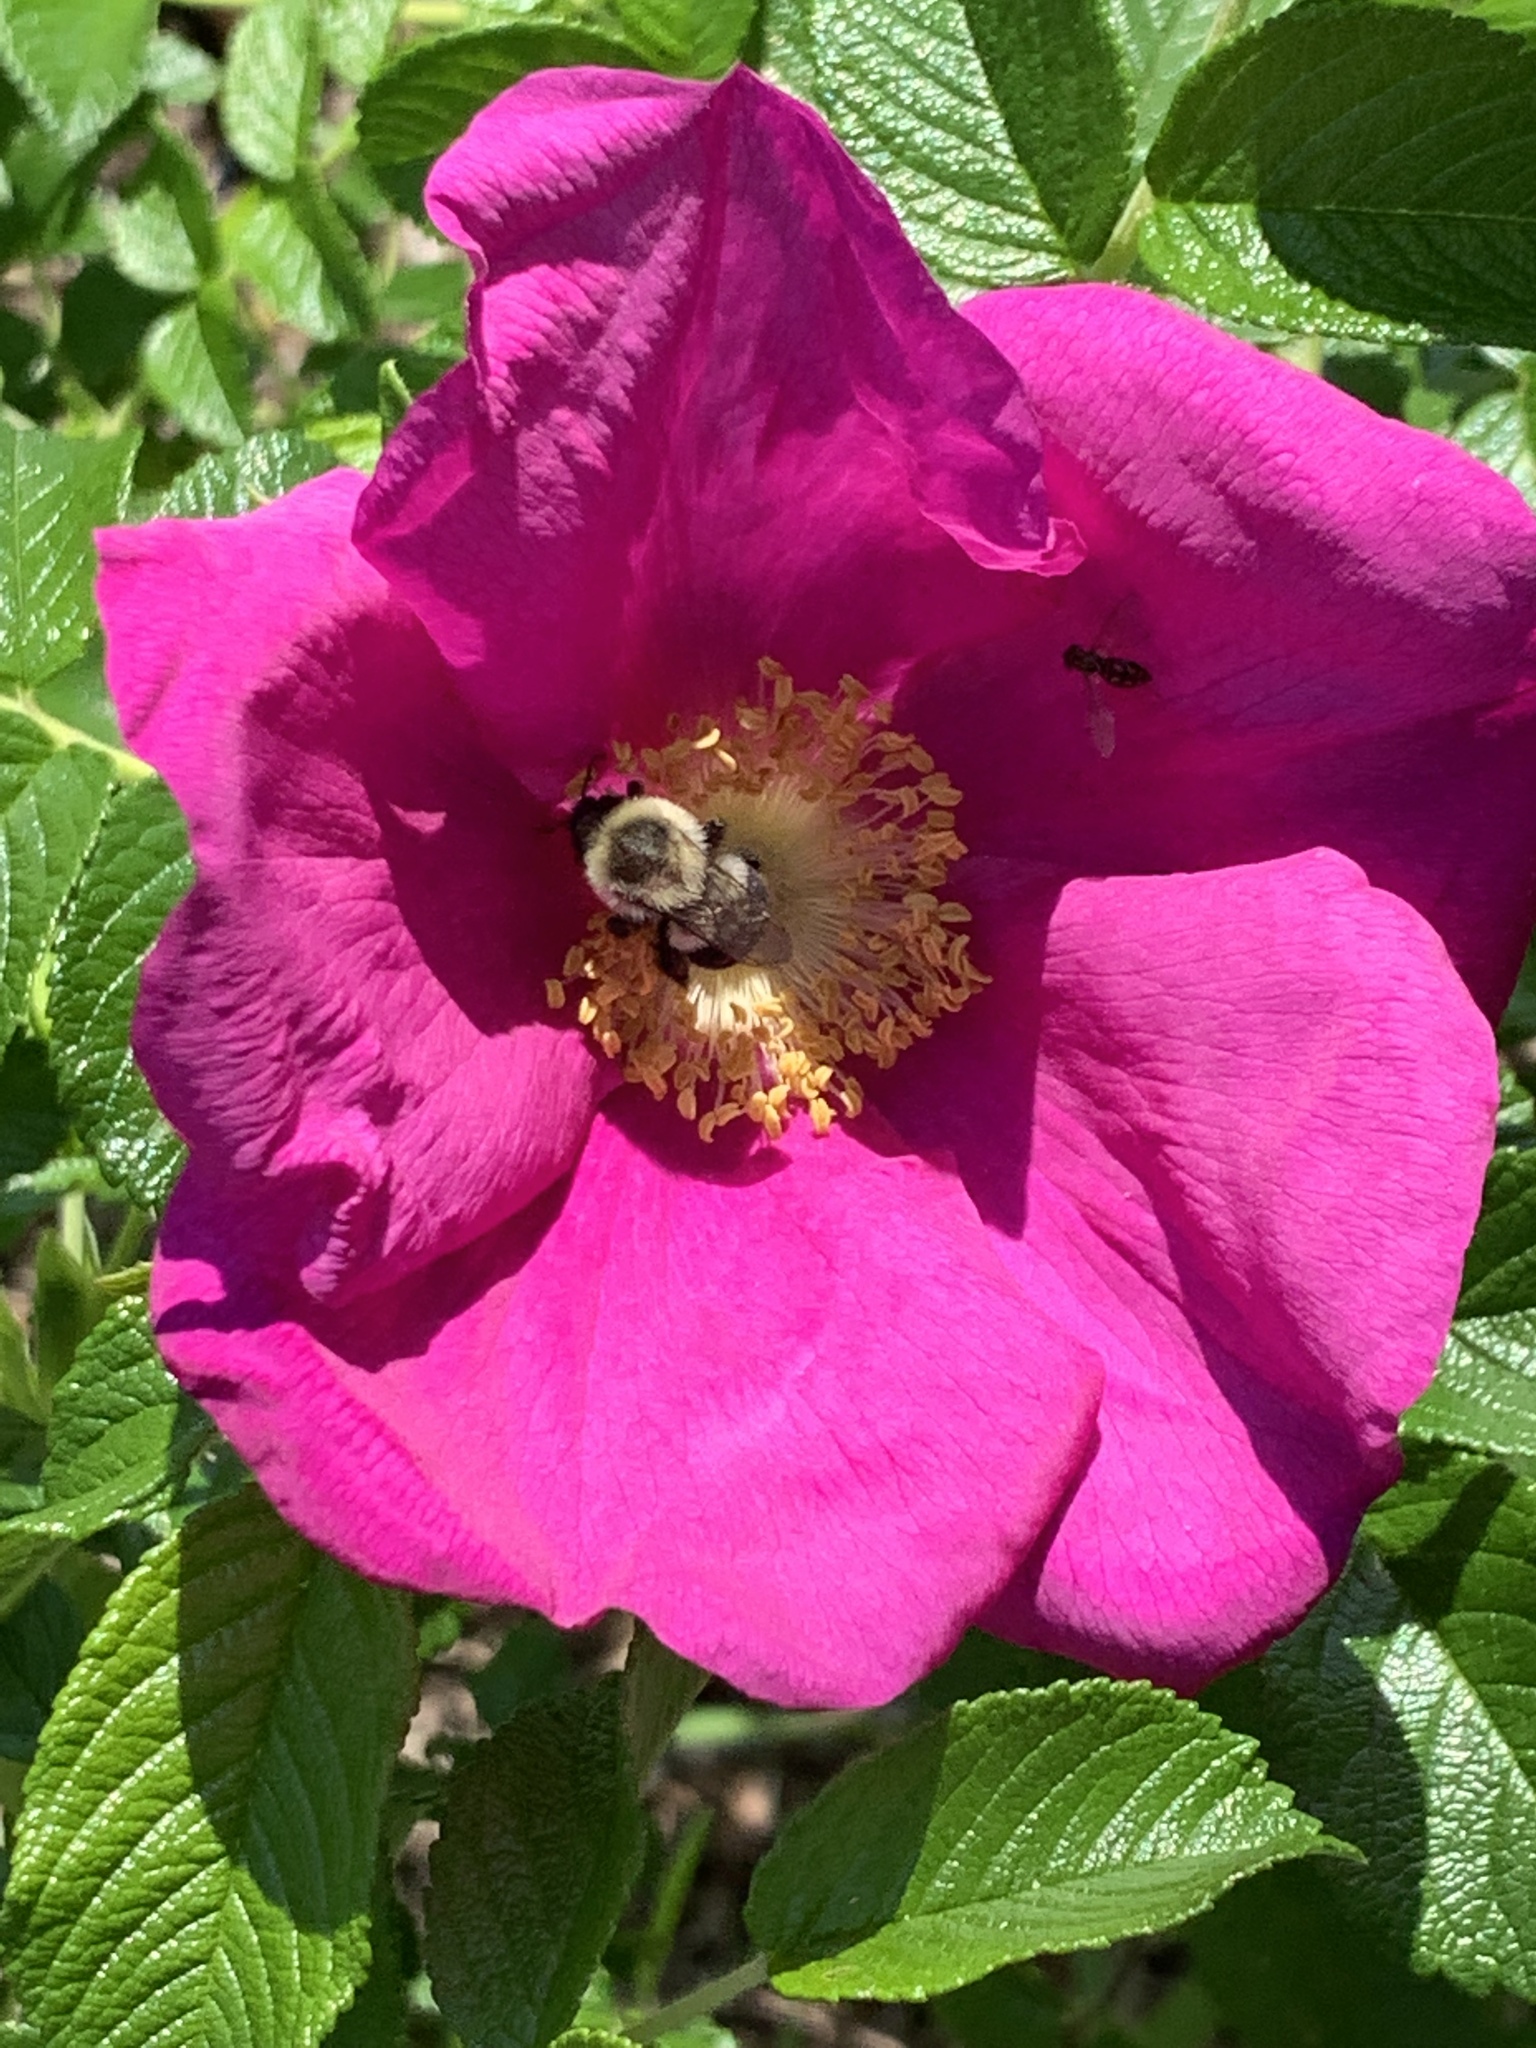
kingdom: Plantae
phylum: Tracheophyta
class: Magnoliopsida
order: Rosales
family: Rosaceae
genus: Rosa
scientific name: Rosa rugosa
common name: Japanese rose
